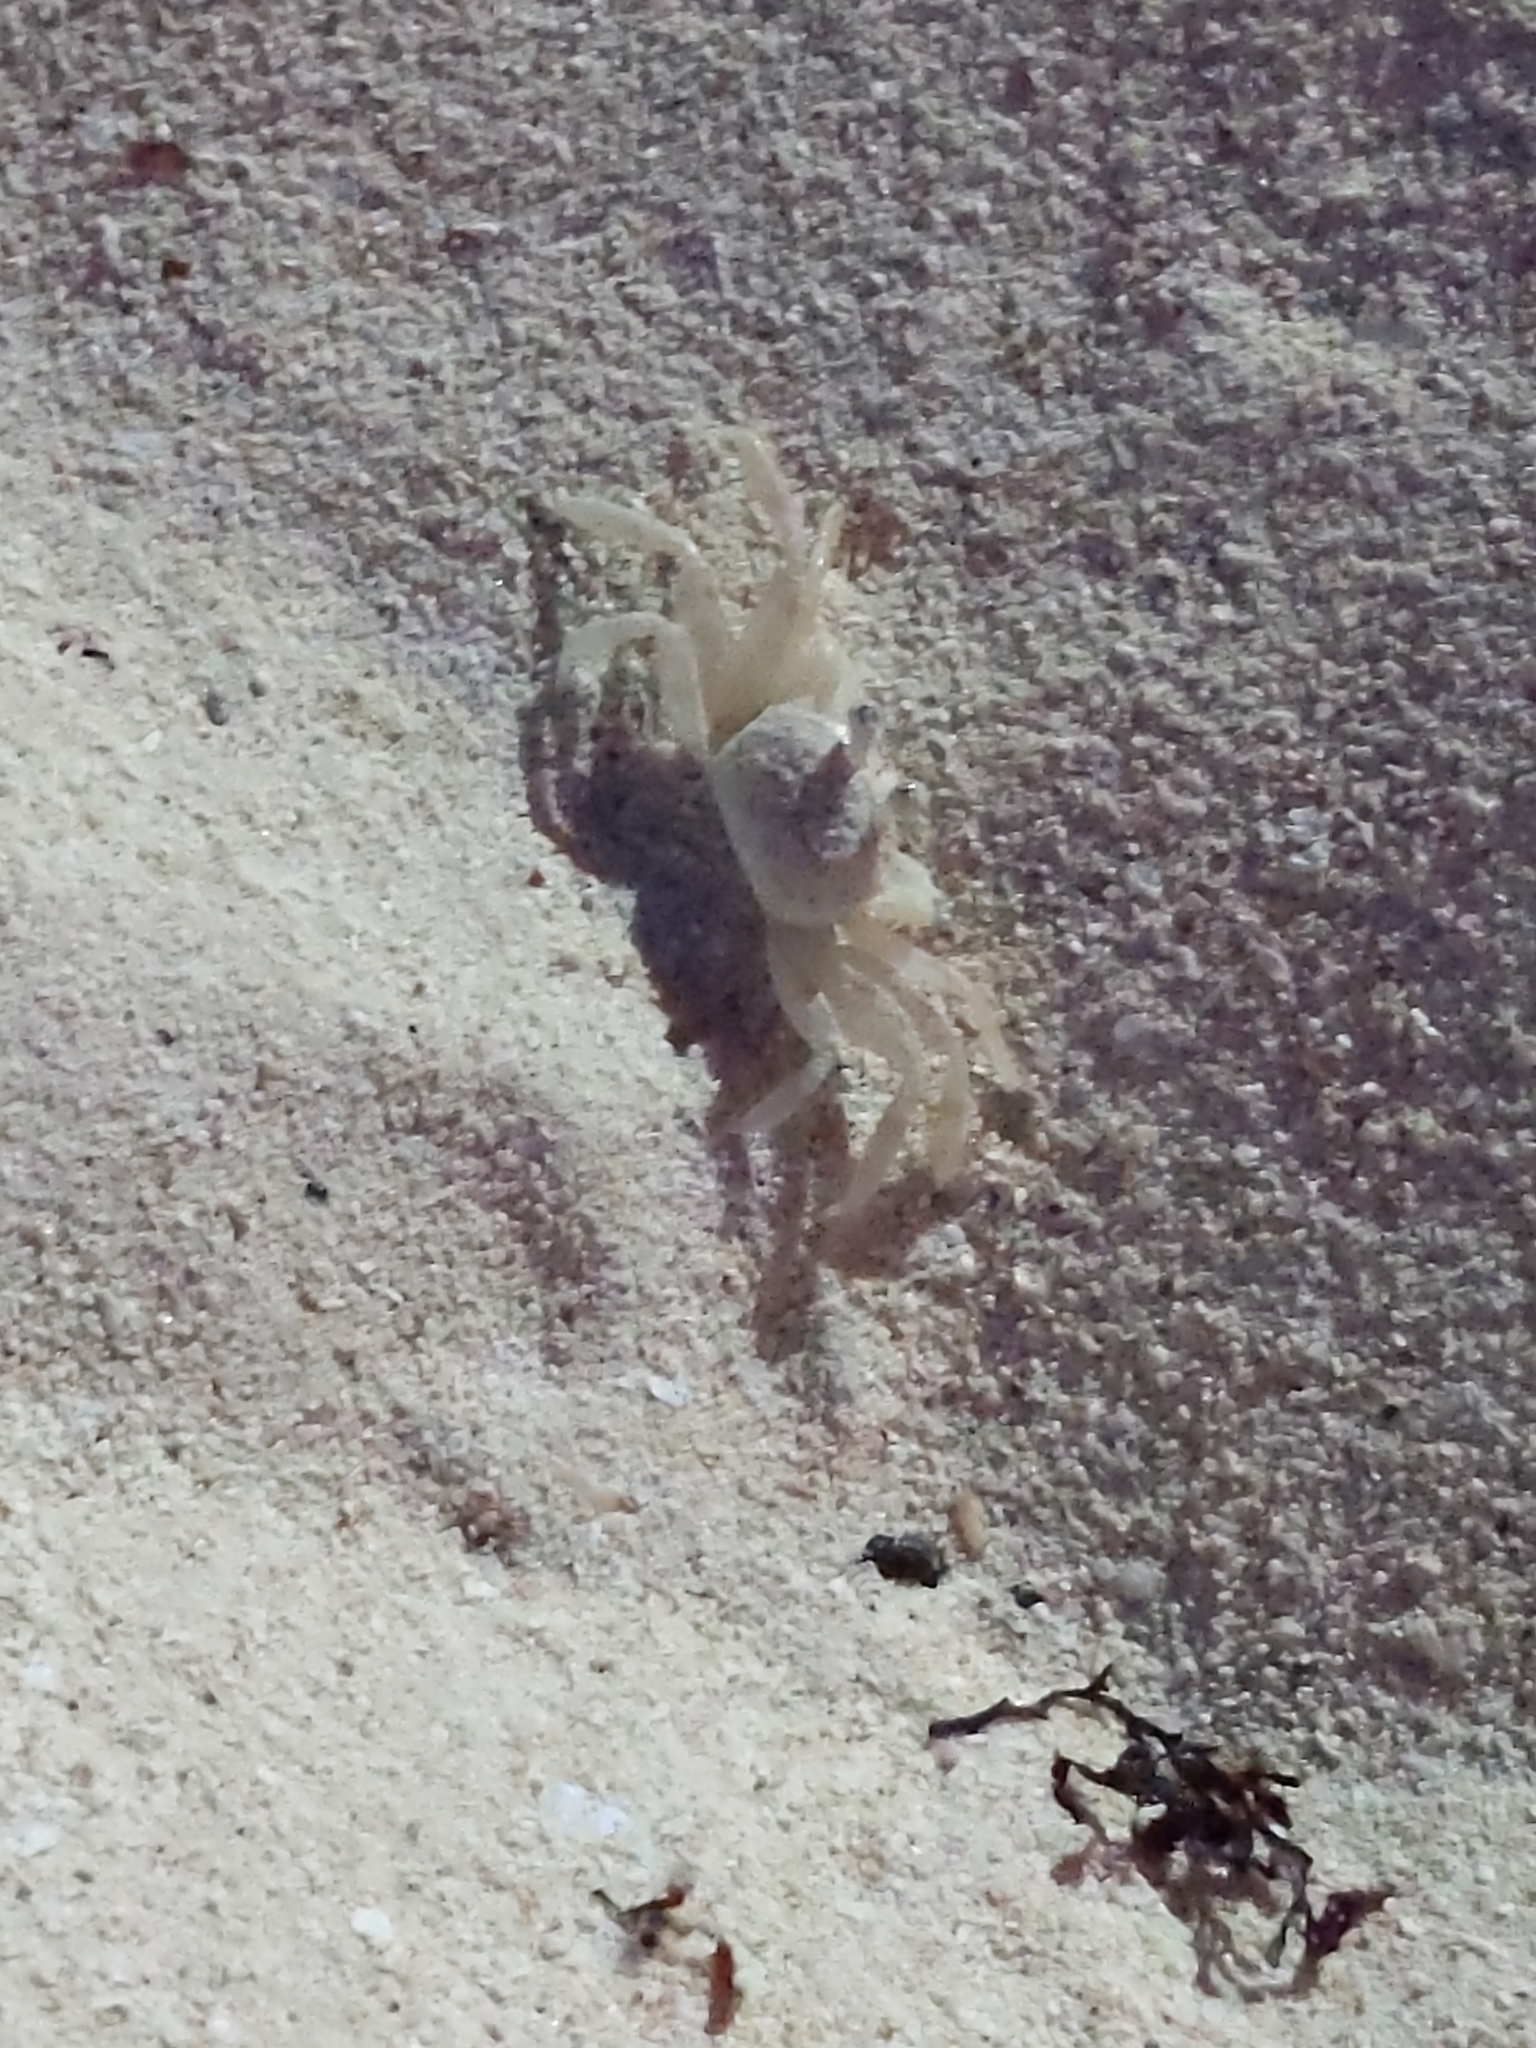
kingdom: Animalia
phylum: Arthropoda
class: Malacostraca
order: Decapoda
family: Ocypodidae
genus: Ocypode
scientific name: Ocypode quadrata
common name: Ghost crab
